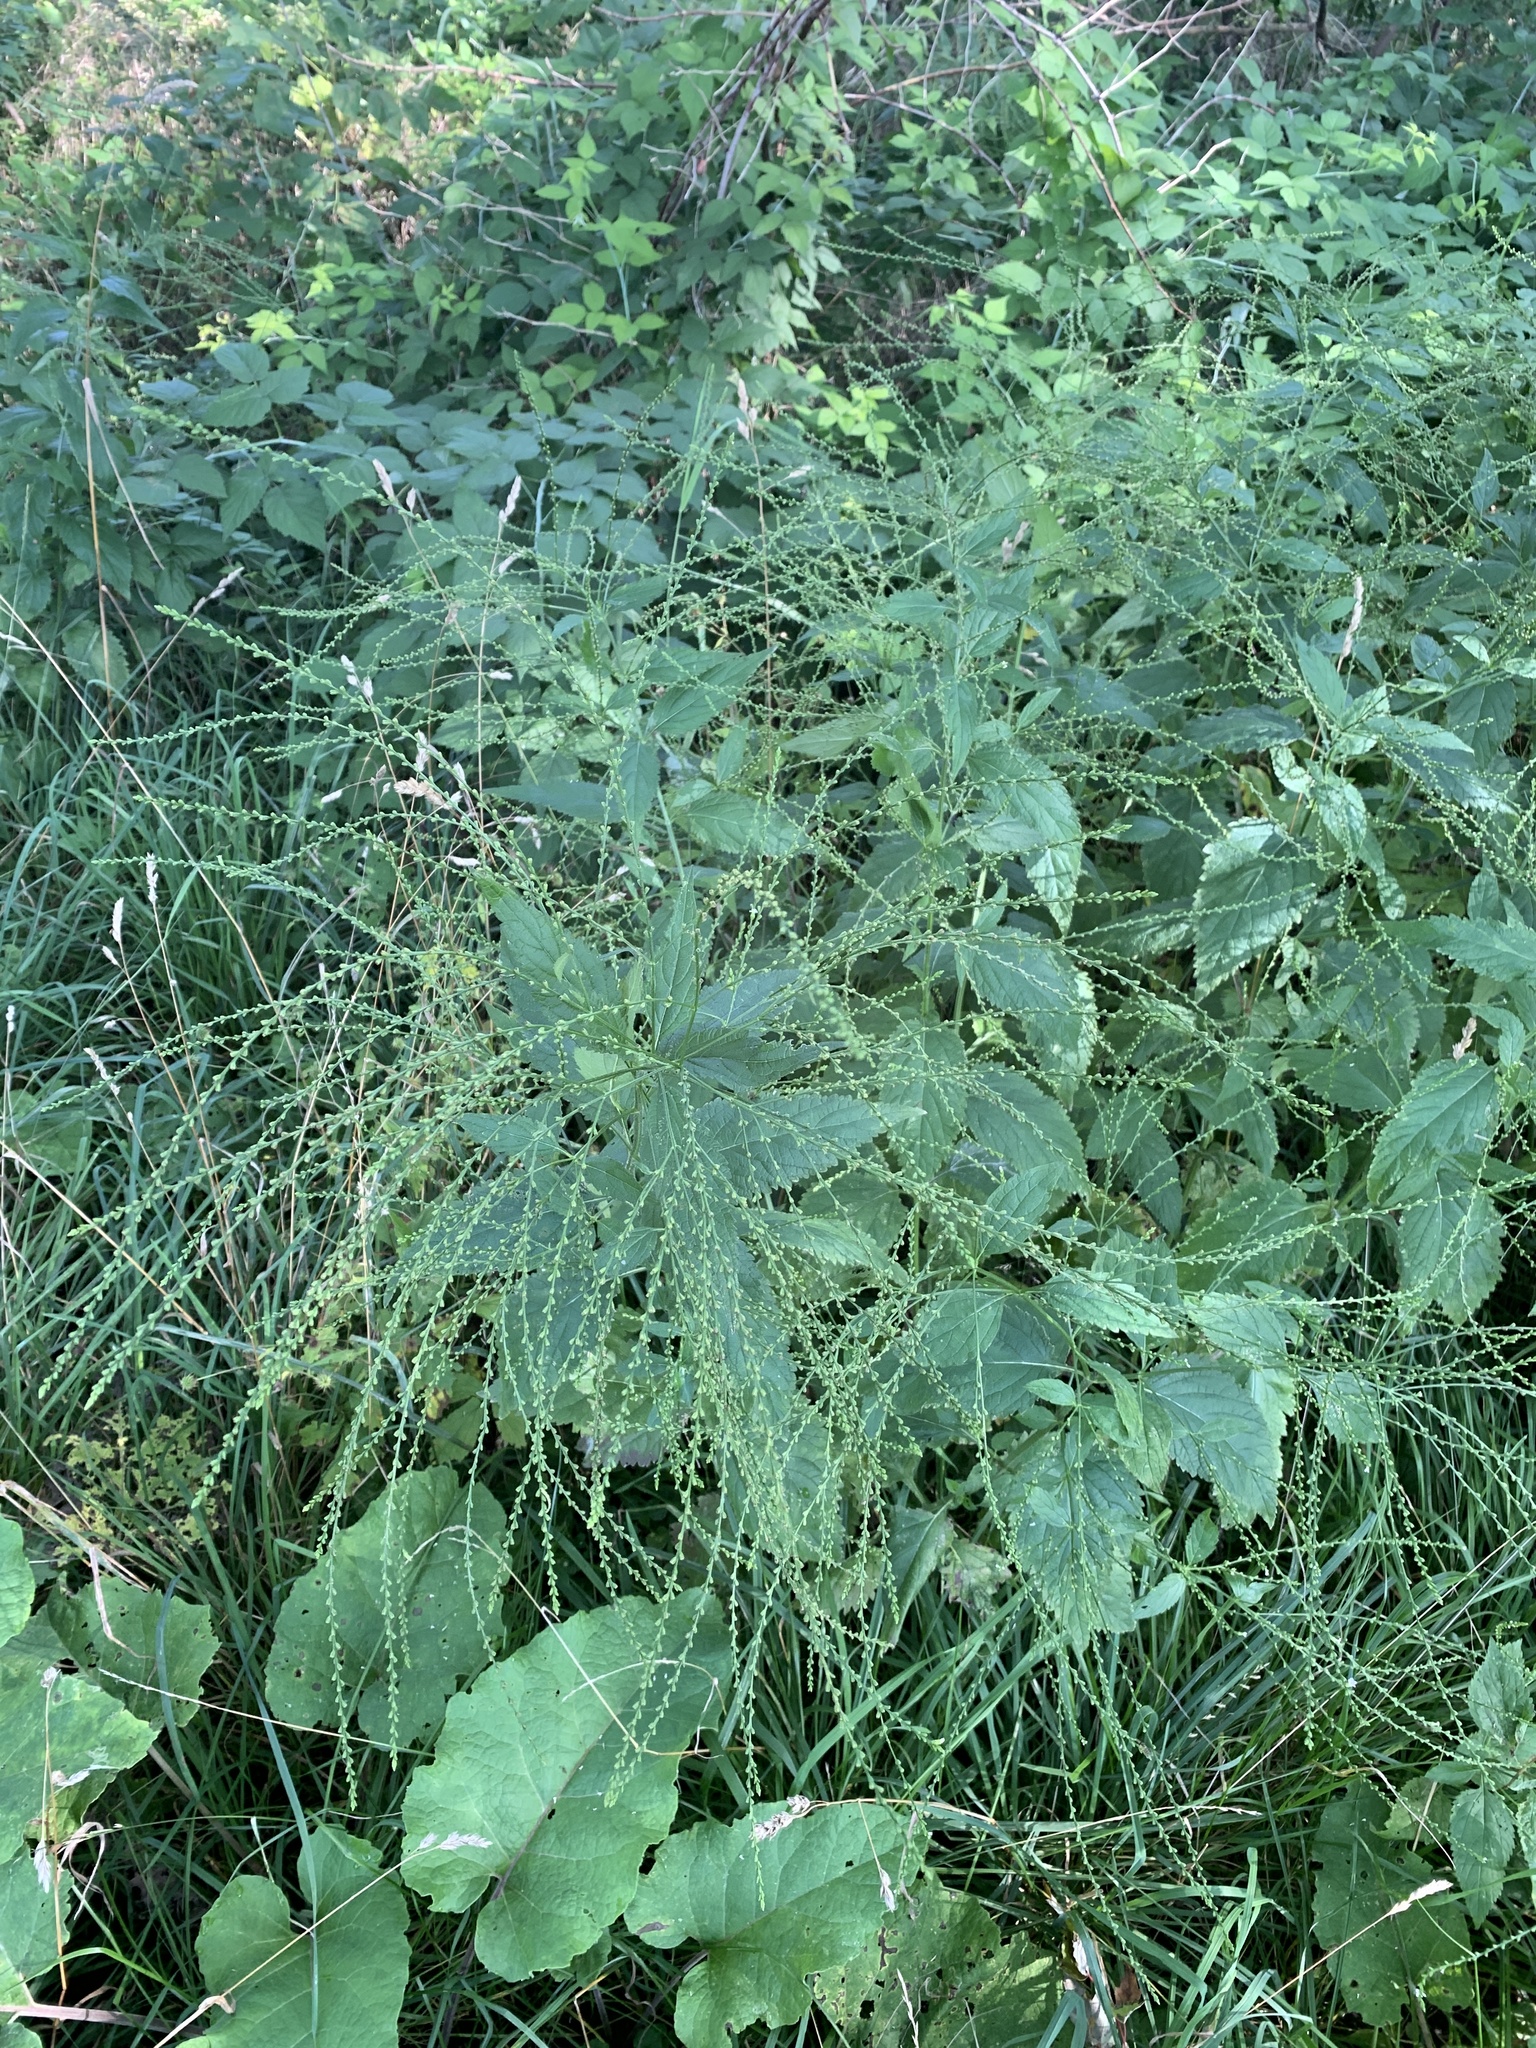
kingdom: Plantae
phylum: Tracheophyta
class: Magnoliopsida
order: Lamiales
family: Verbenaceae
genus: Verbena
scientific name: Verbena urticifolia
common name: Nettle-leaved vervain
